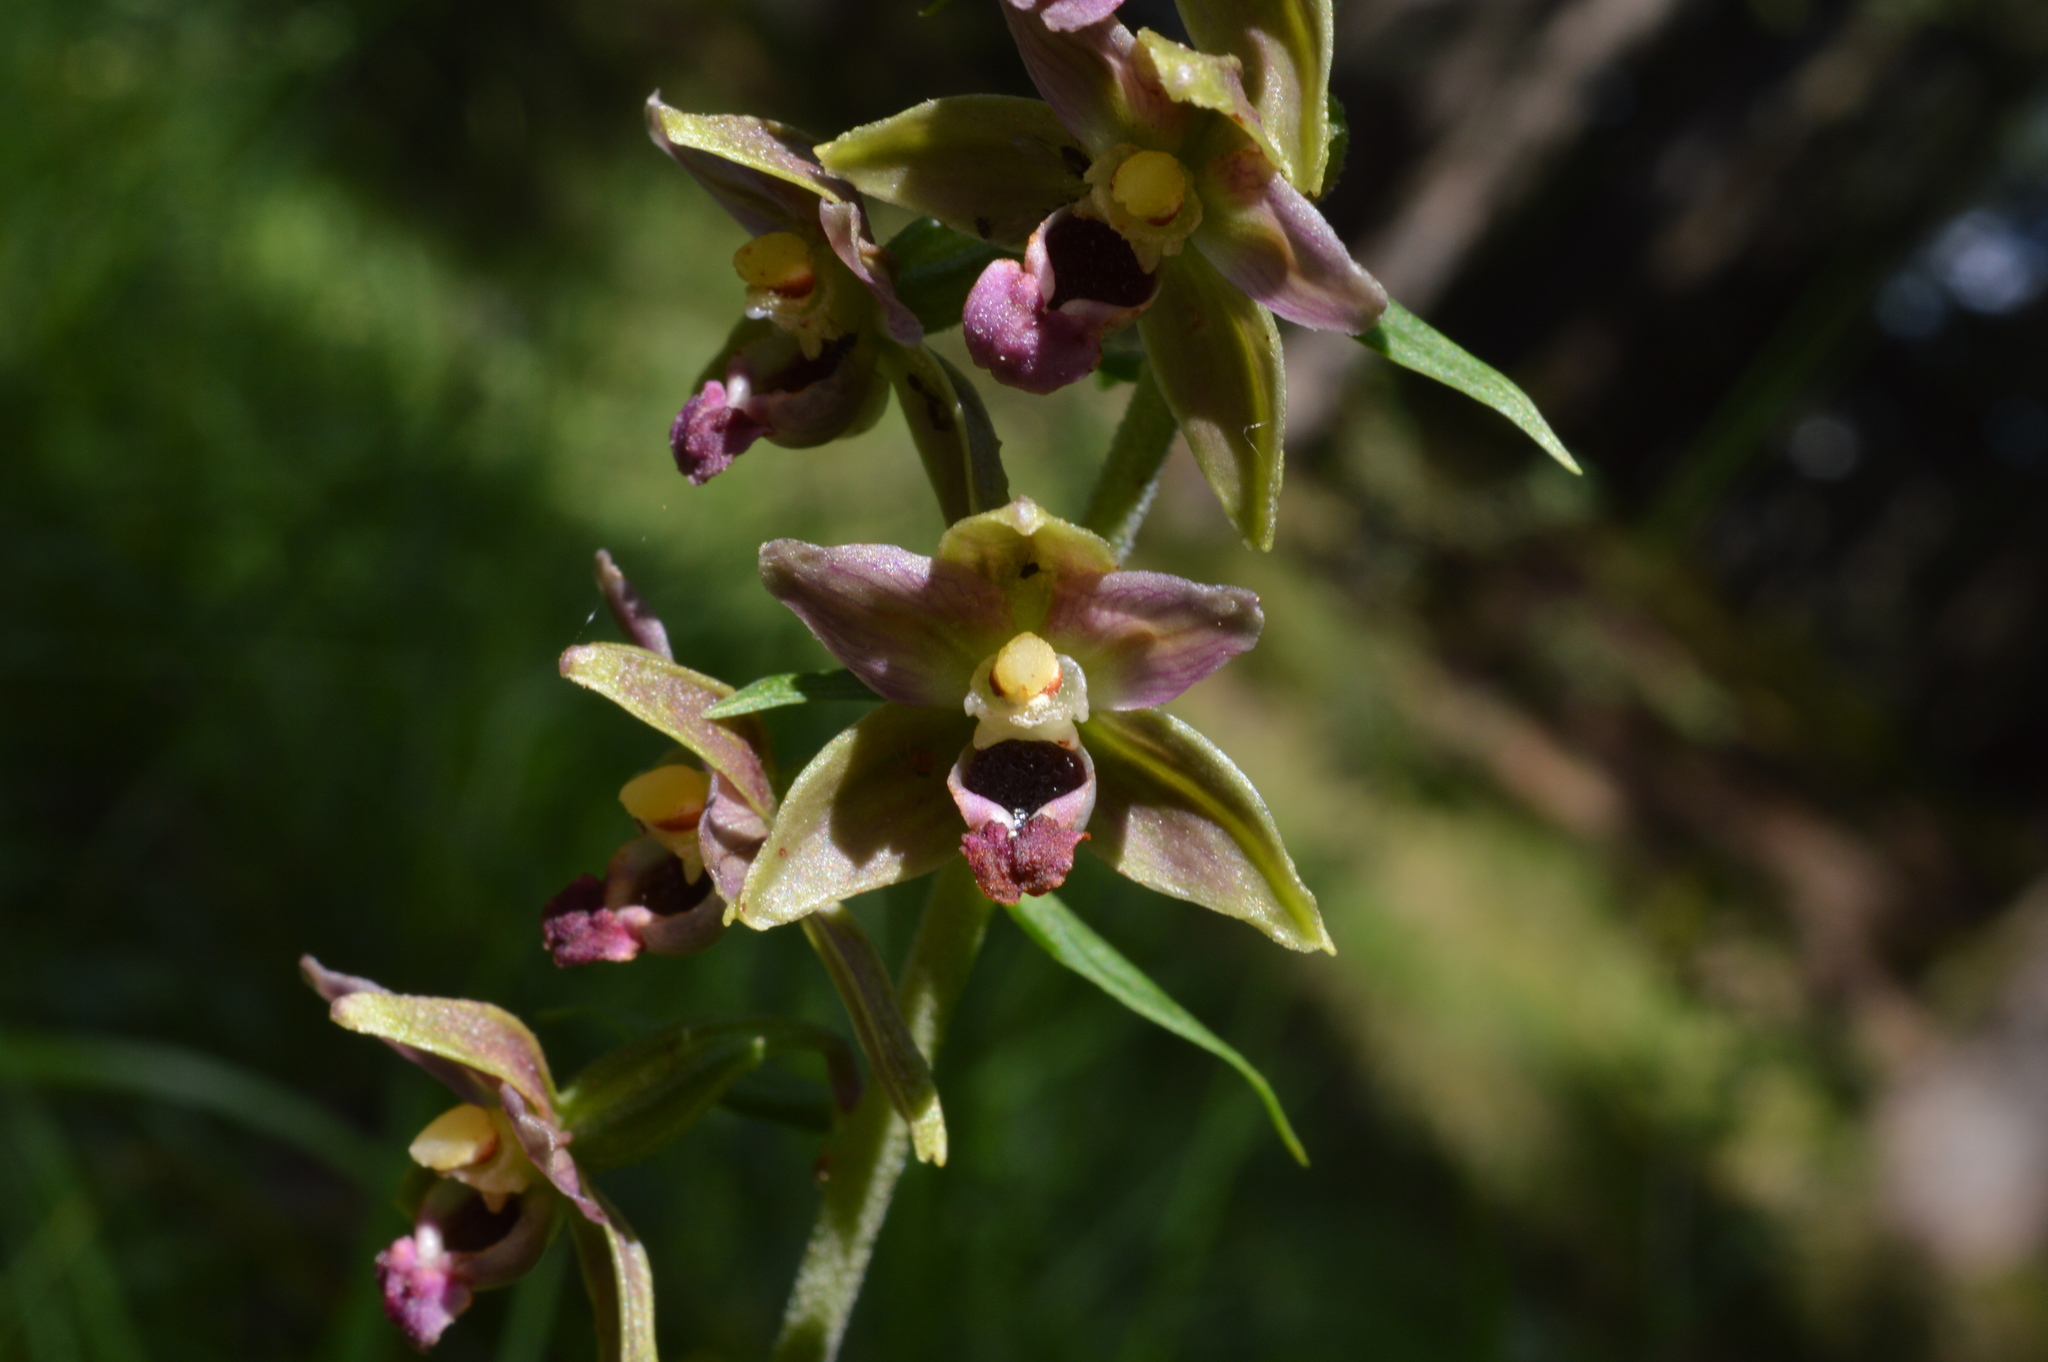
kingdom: Plantae
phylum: Tracheophyta
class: Liliopsida
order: Asparagales
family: Orchidaceae
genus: Epipactis
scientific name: Epipactis helleborine
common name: Broad-leaved helleborine
